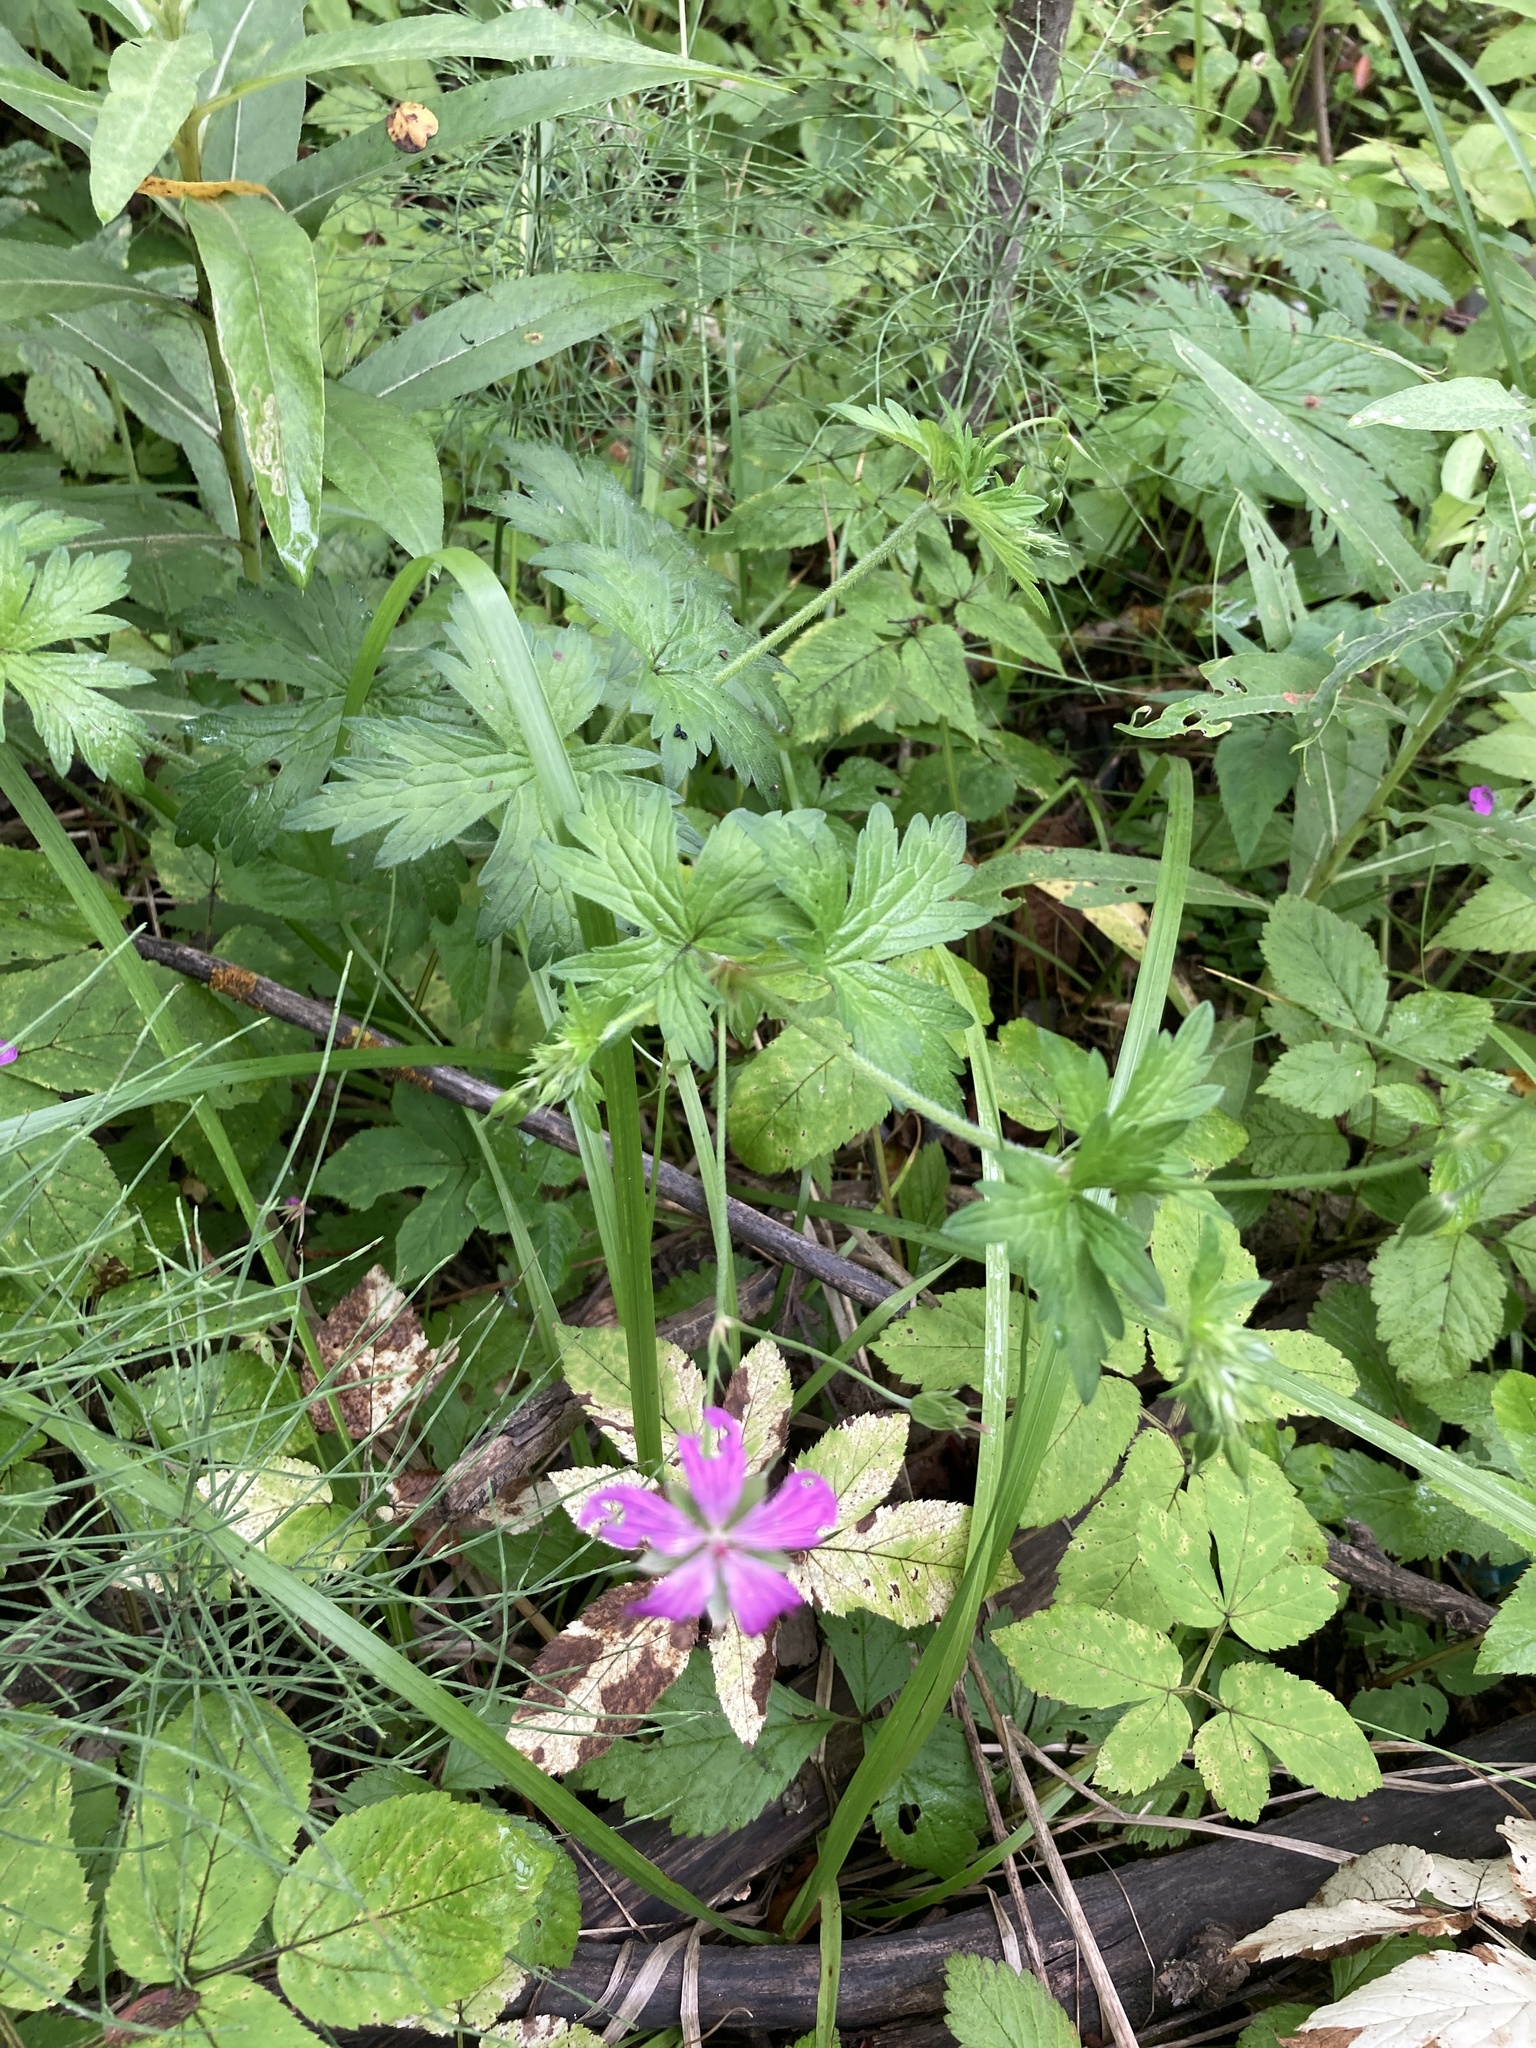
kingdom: Plantae
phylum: Tracheophyta
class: Magnoliopsida
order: Geraniales
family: Geraniaceae
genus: Geranium
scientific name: Geranium palustre
